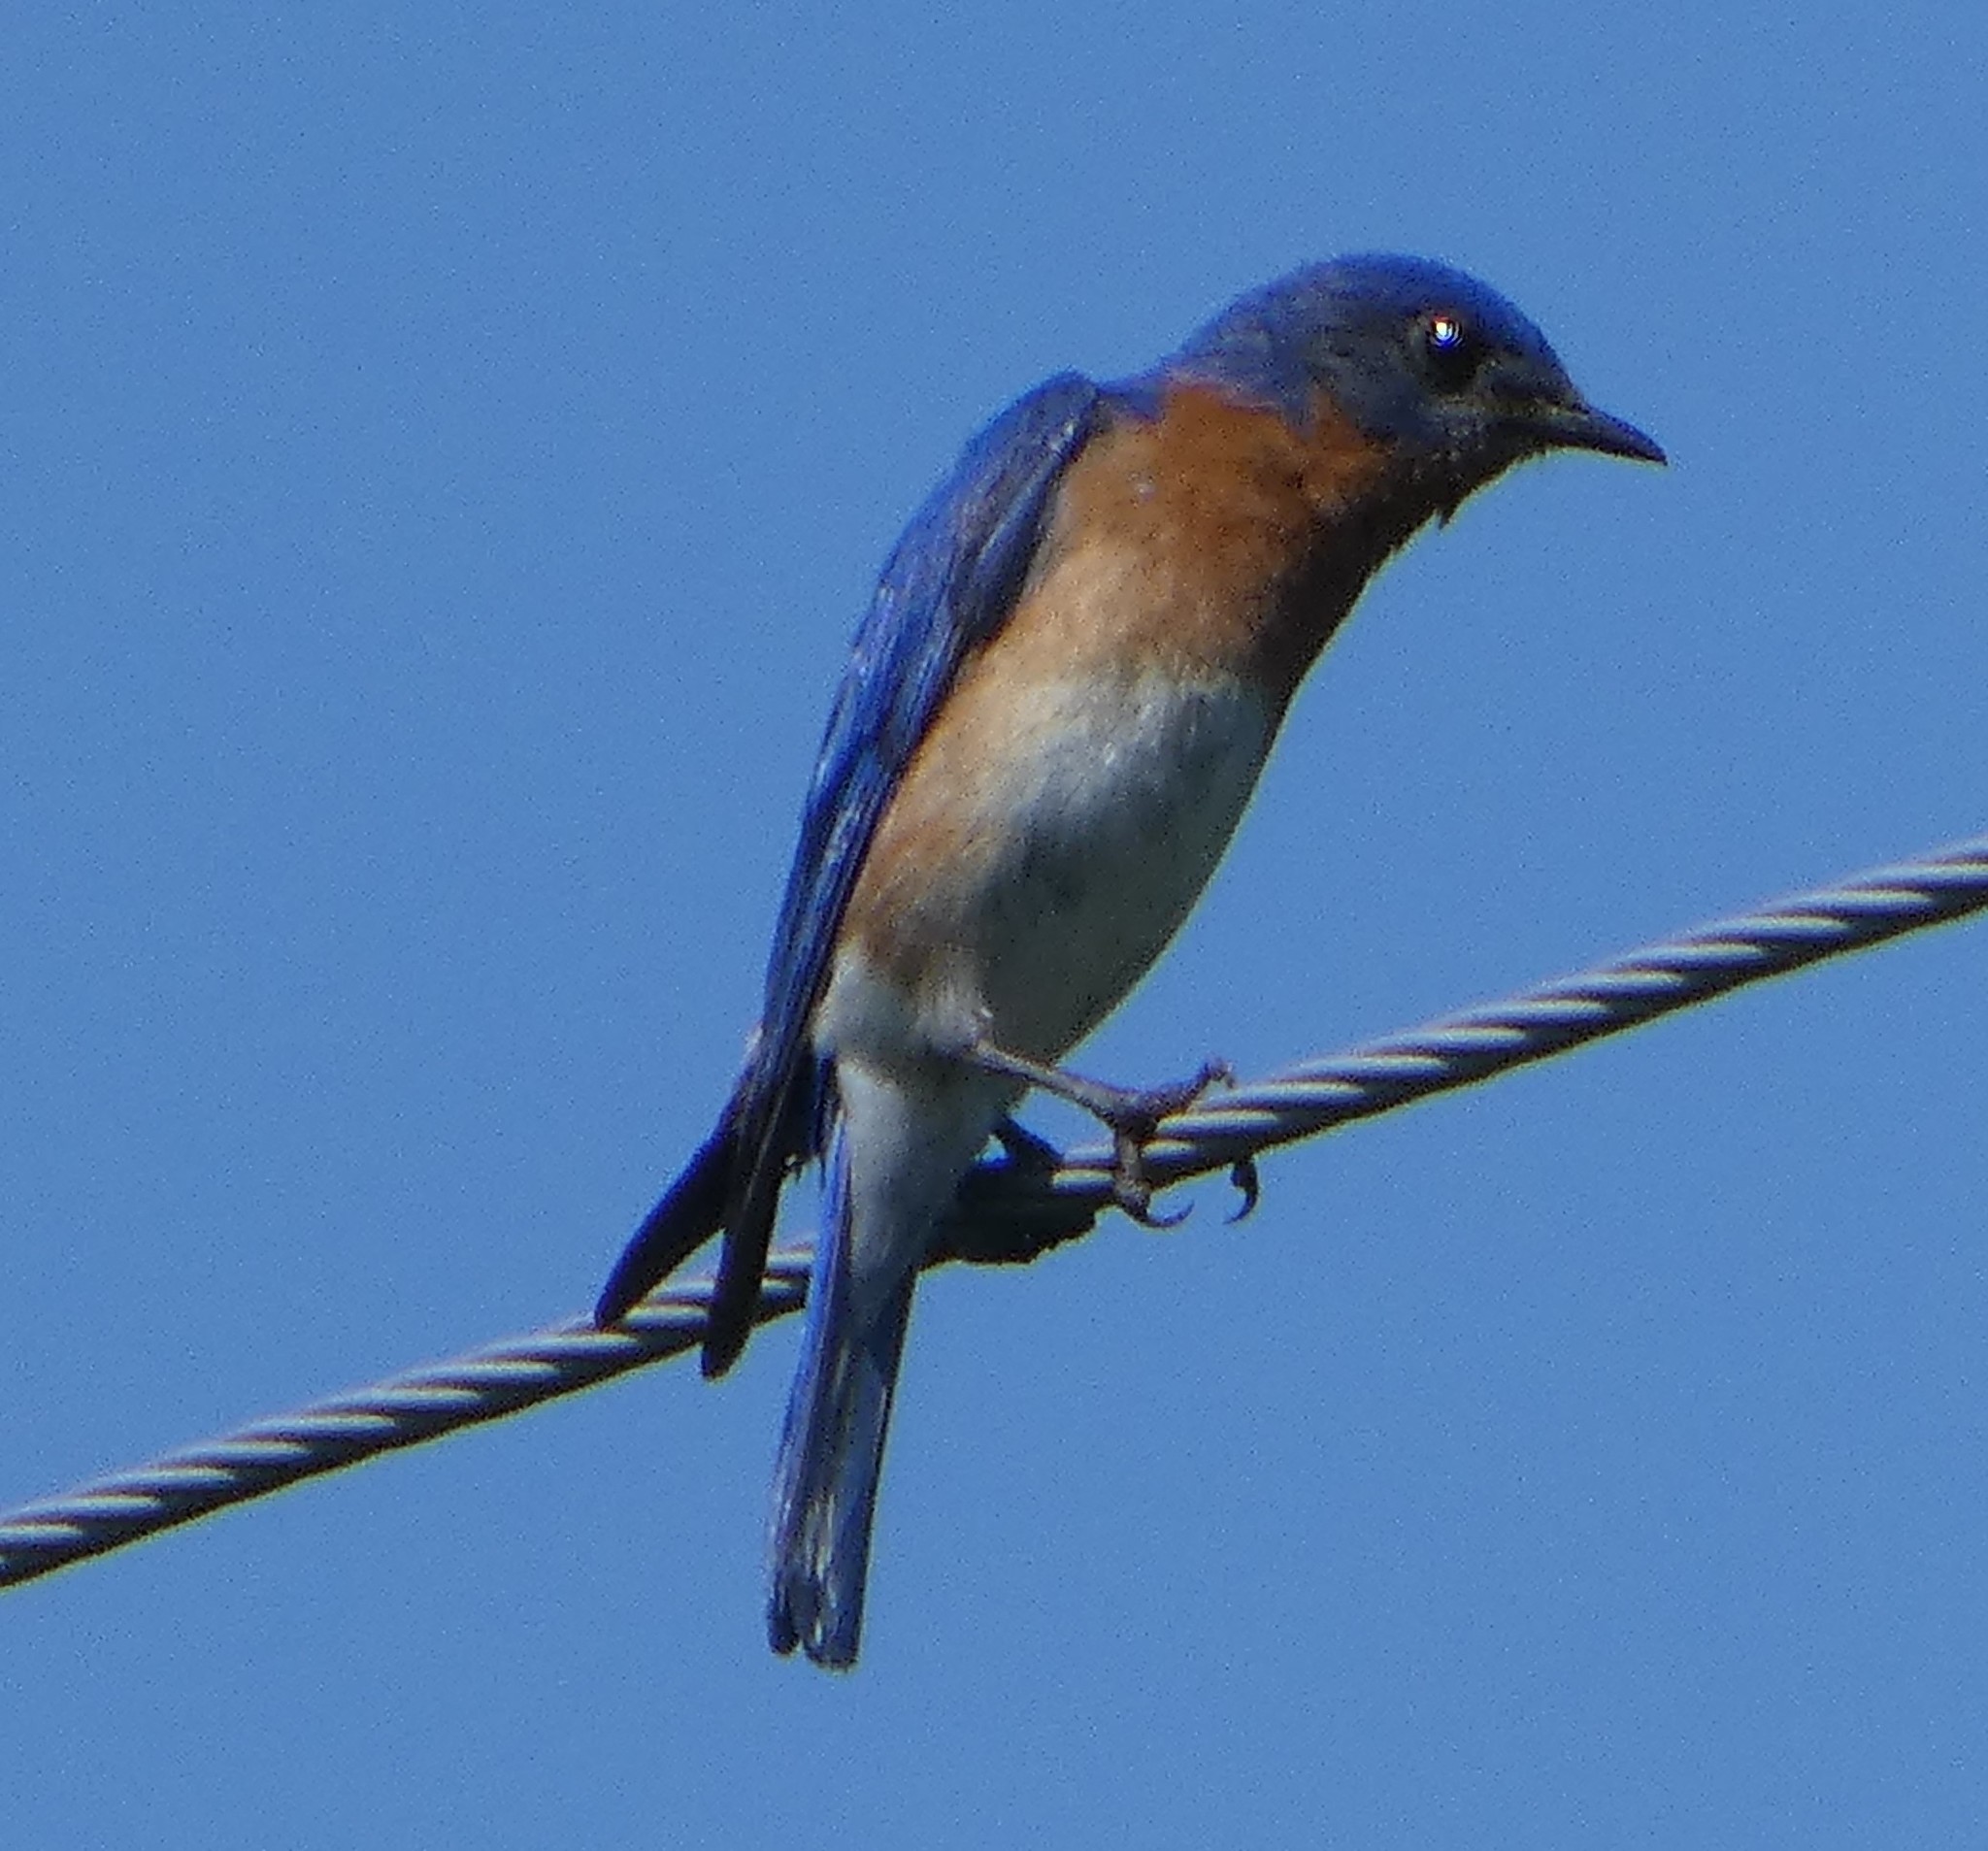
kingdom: Animalia
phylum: Chordata
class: Aves
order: Passeriformes
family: Turdidae
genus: Sialia
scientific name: Sialia sialis
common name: Eastern bluebird
